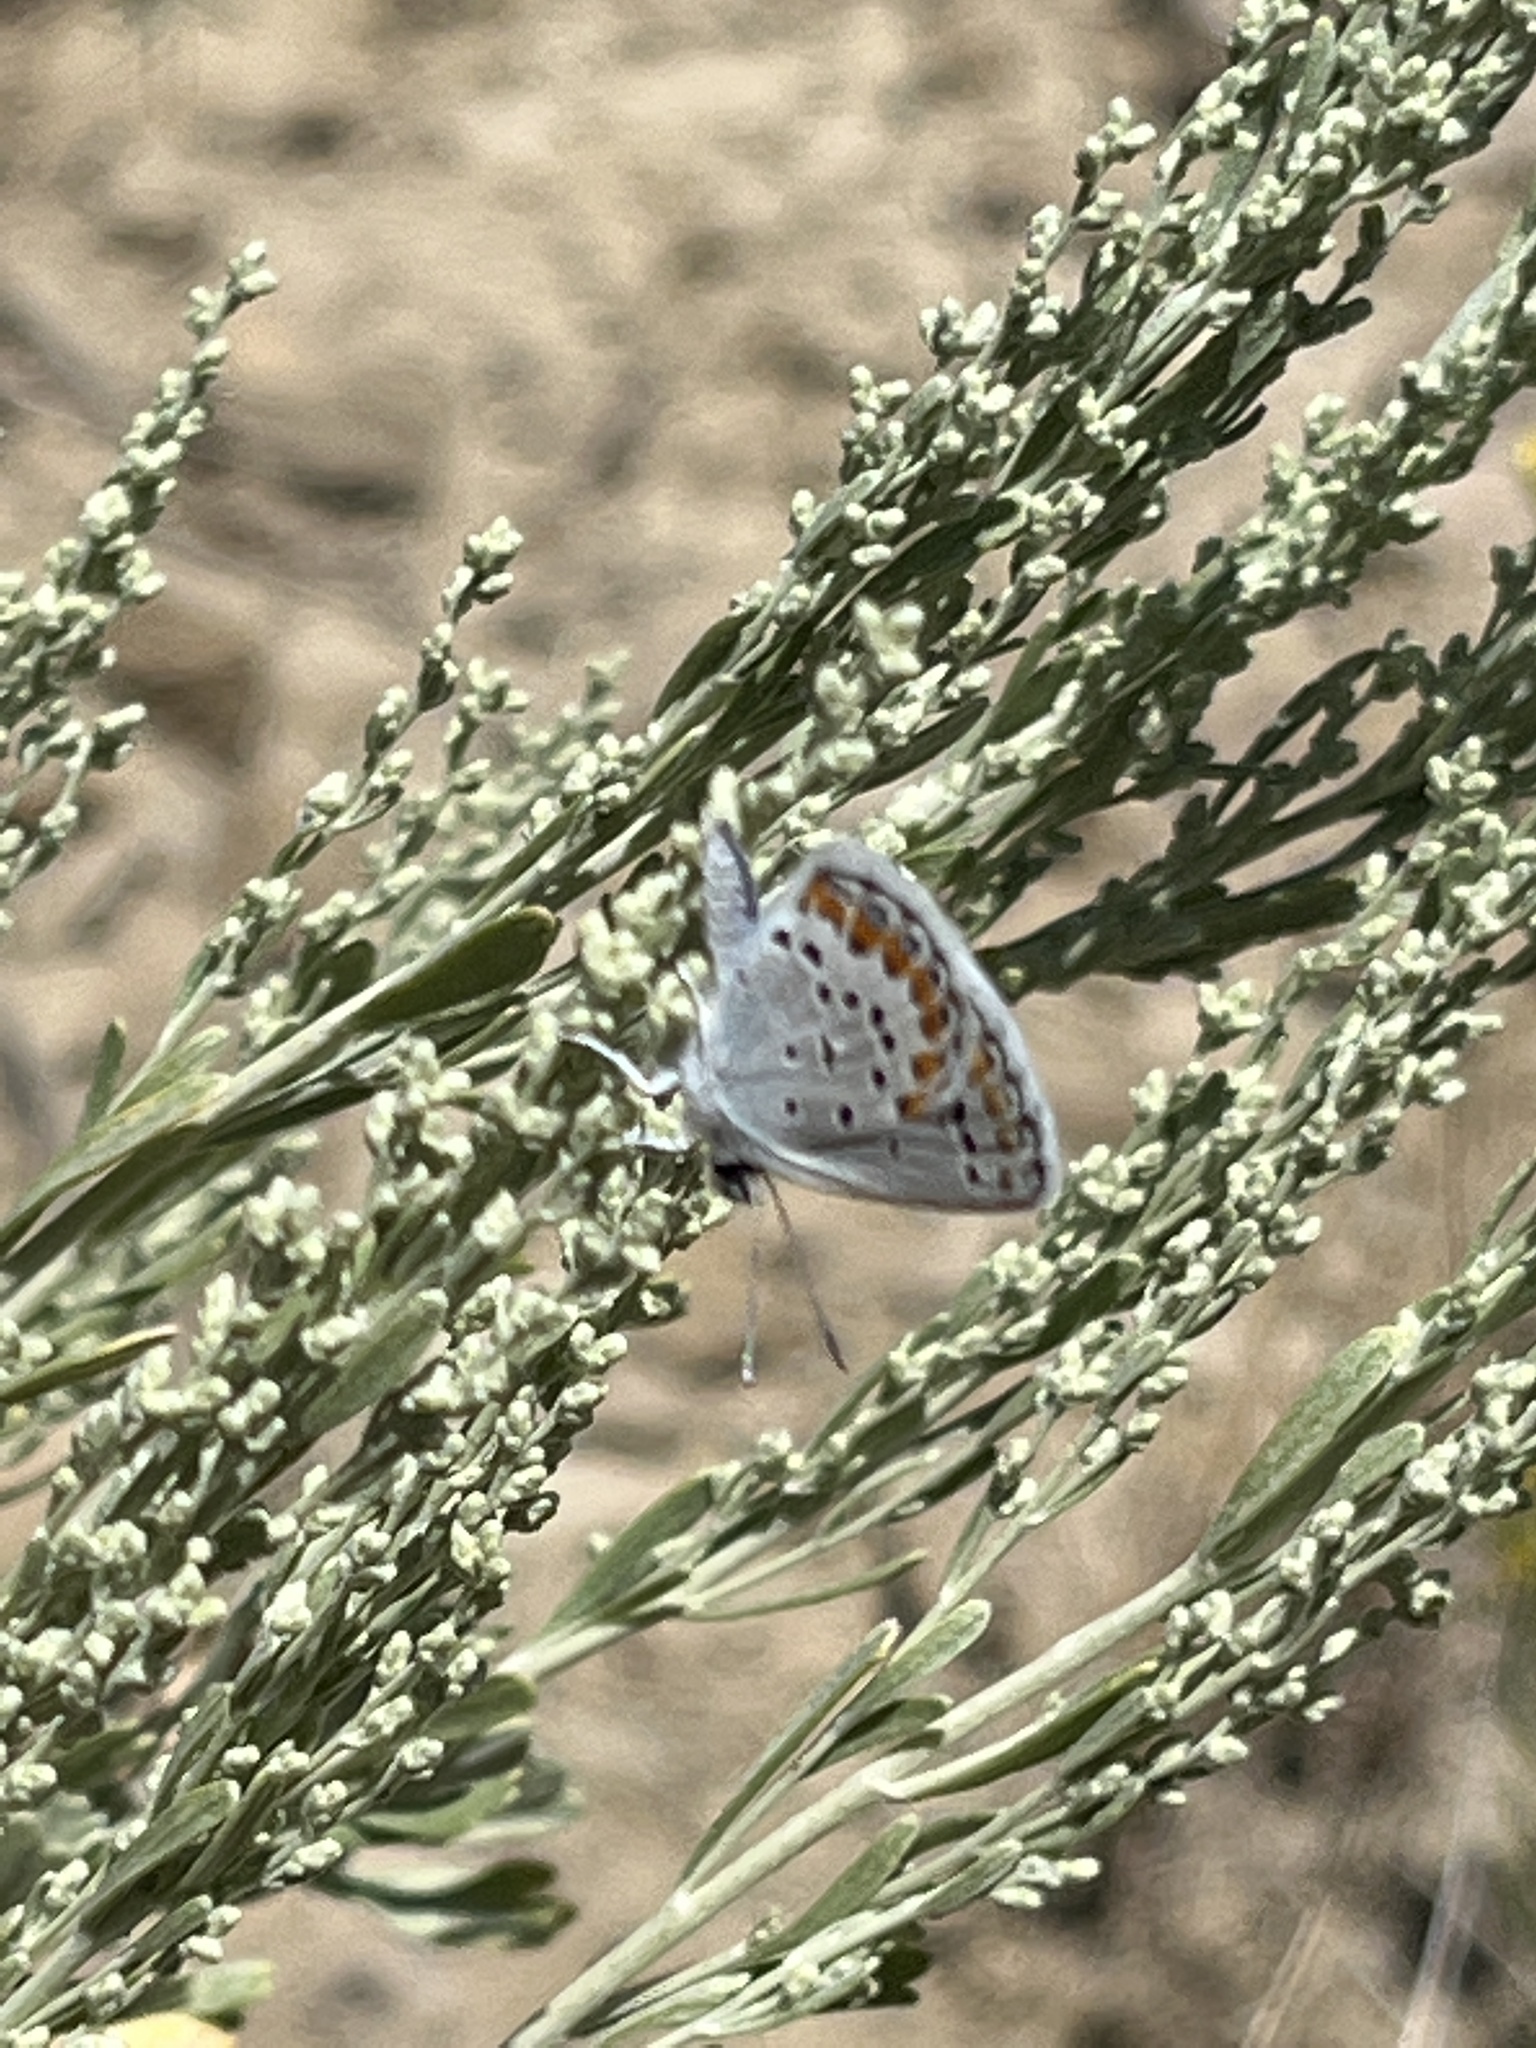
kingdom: Animalia
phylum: Arthropoda
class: Insecta
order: Lepidoptera
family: Lycaenidae
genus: Lycaeides
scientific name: Lycaeides melissa
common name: Melissa blue
